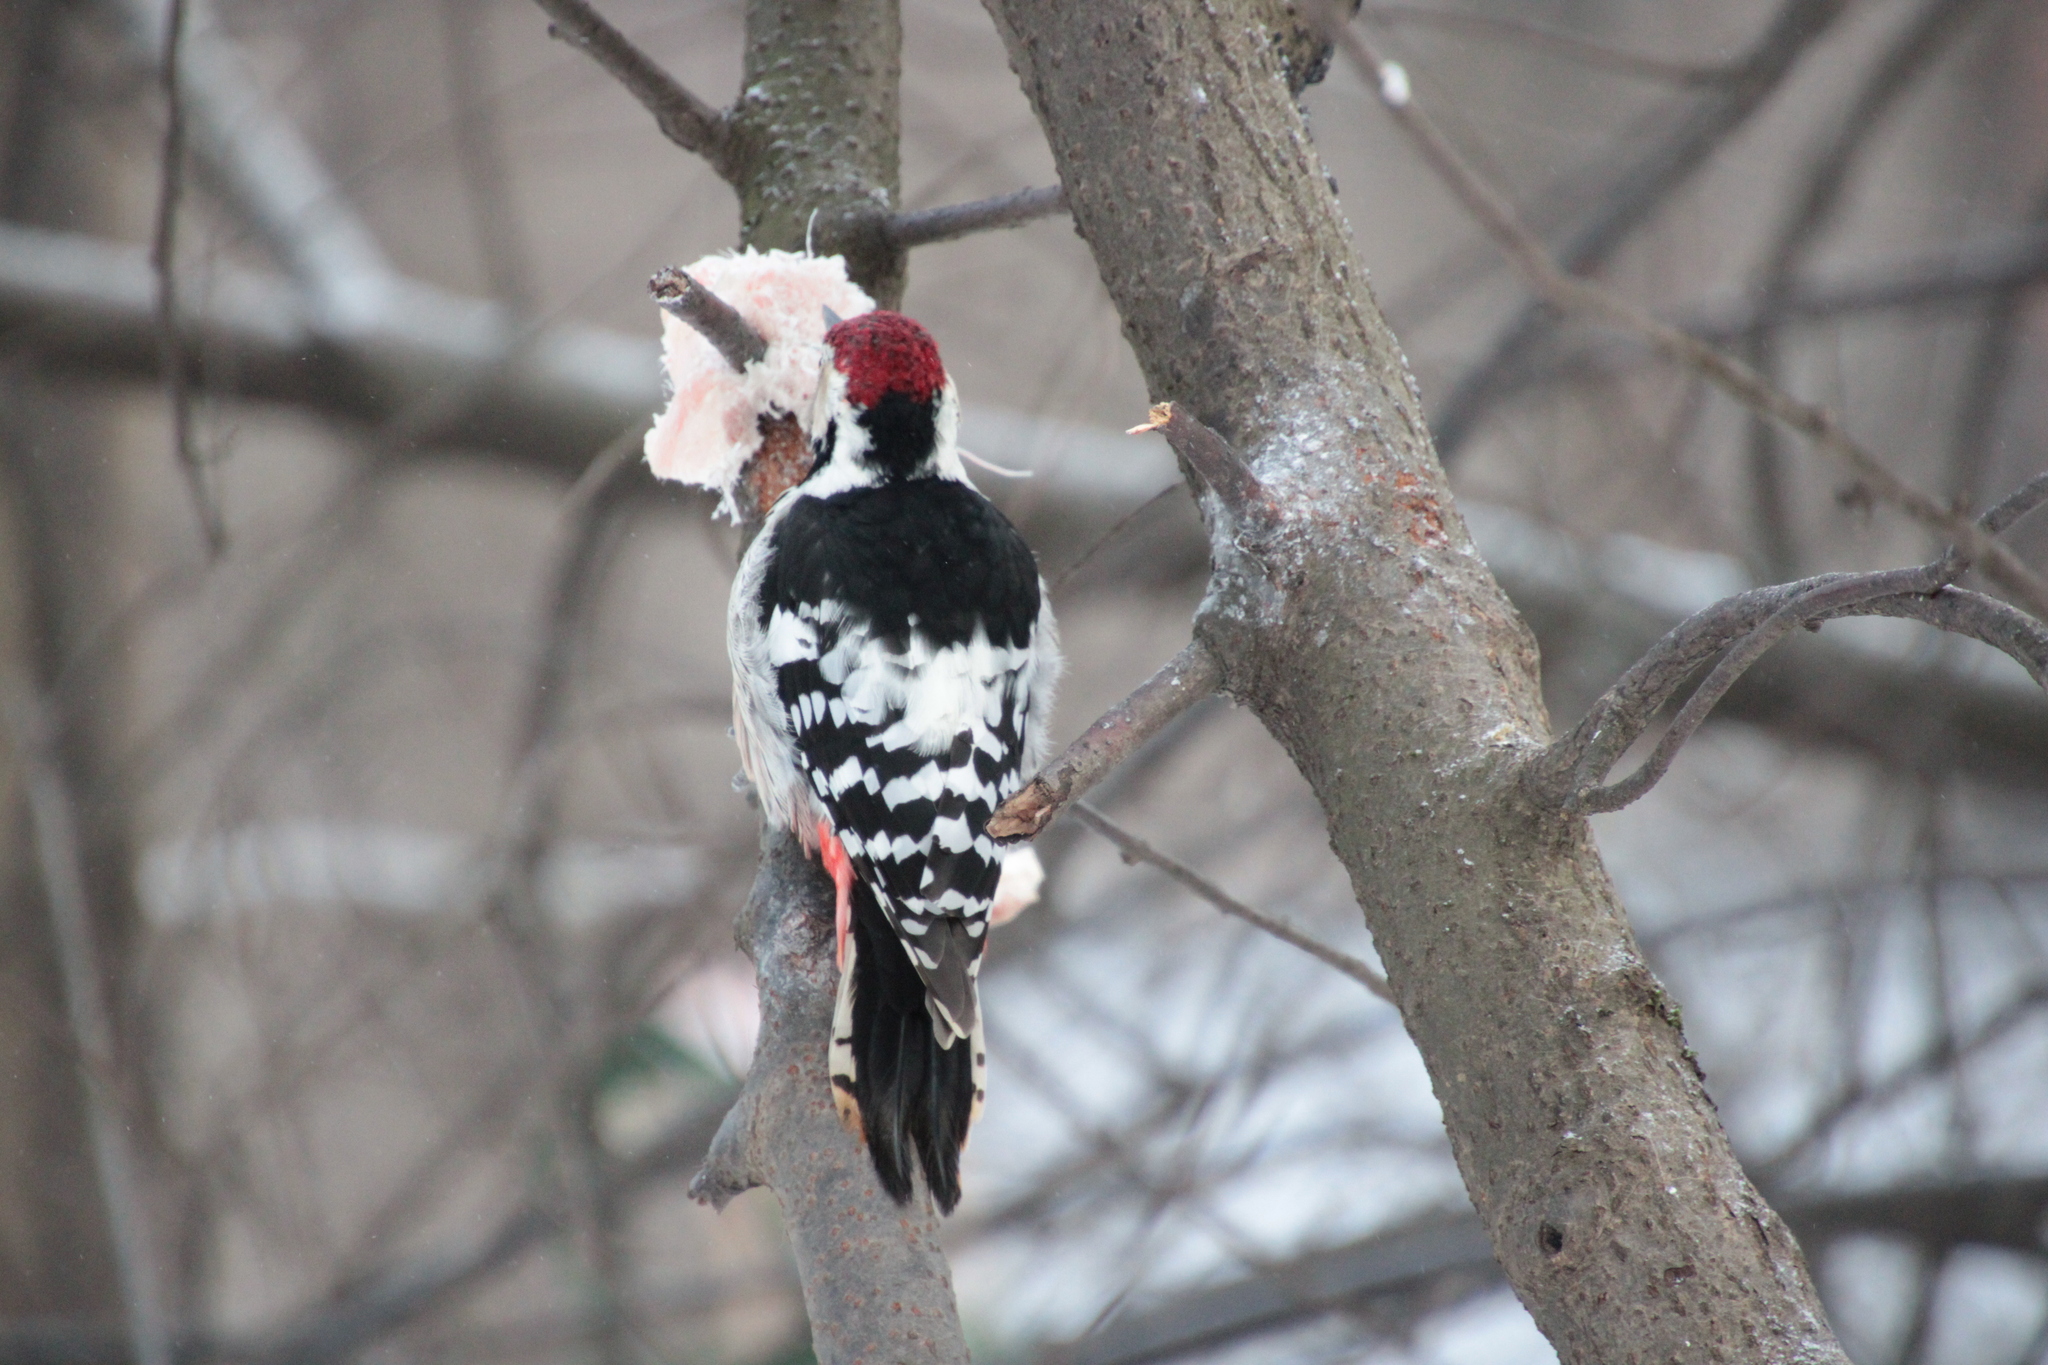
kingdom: Animalia
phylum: Chordata
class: Aves
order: Piciformes
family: Picidae
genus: Dendrocopos
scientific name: Dendrocopos leucotos
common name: White-backed woodpecker
